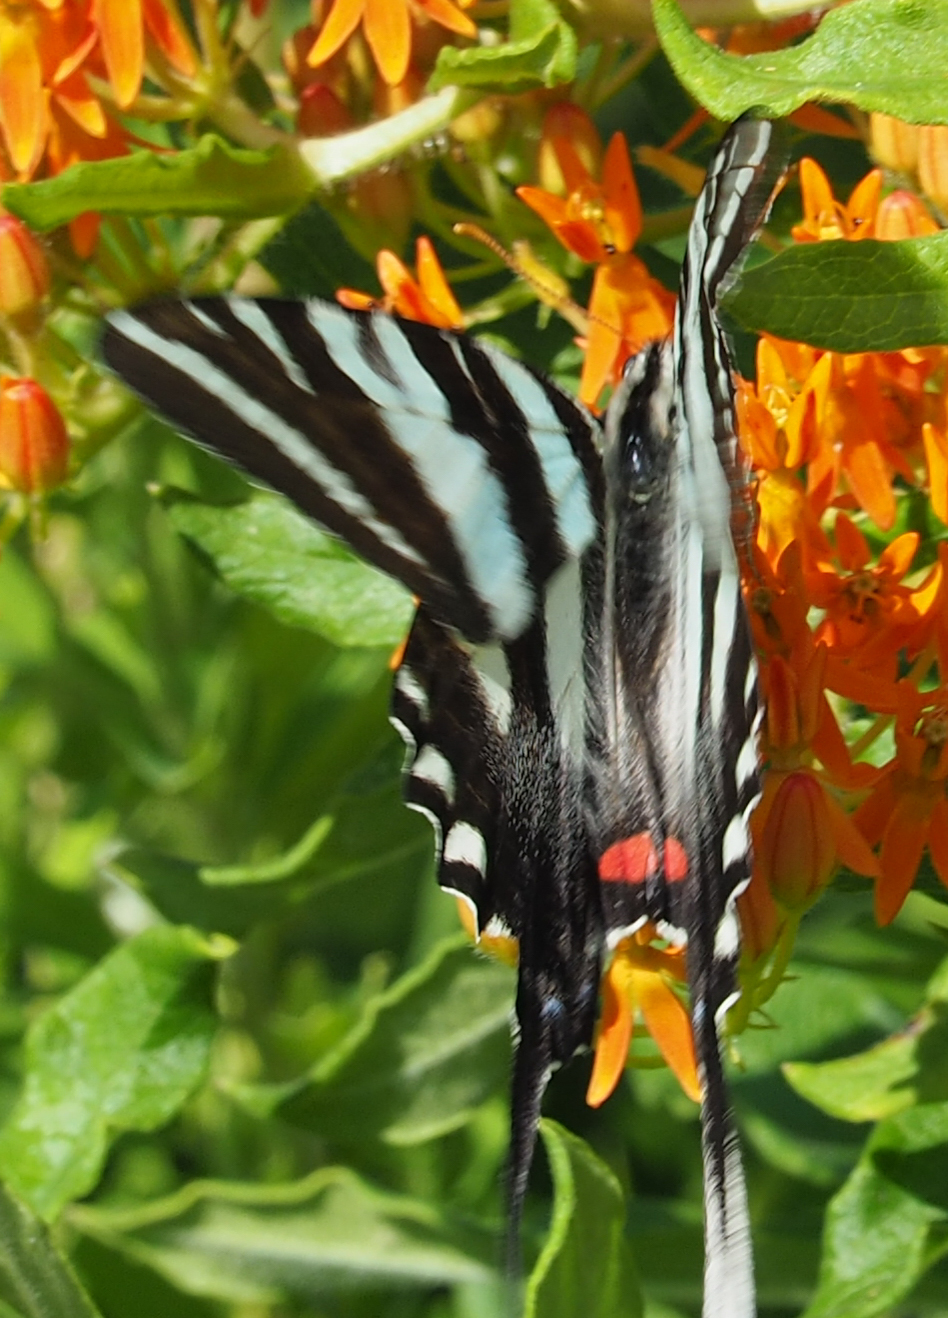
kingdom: Animalia
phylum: Arthropoda
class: Insecta
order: Lepidoptera
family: Papilionidae
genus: Protographium
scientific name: Protographium marcellus
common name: Zebra swallowtail
